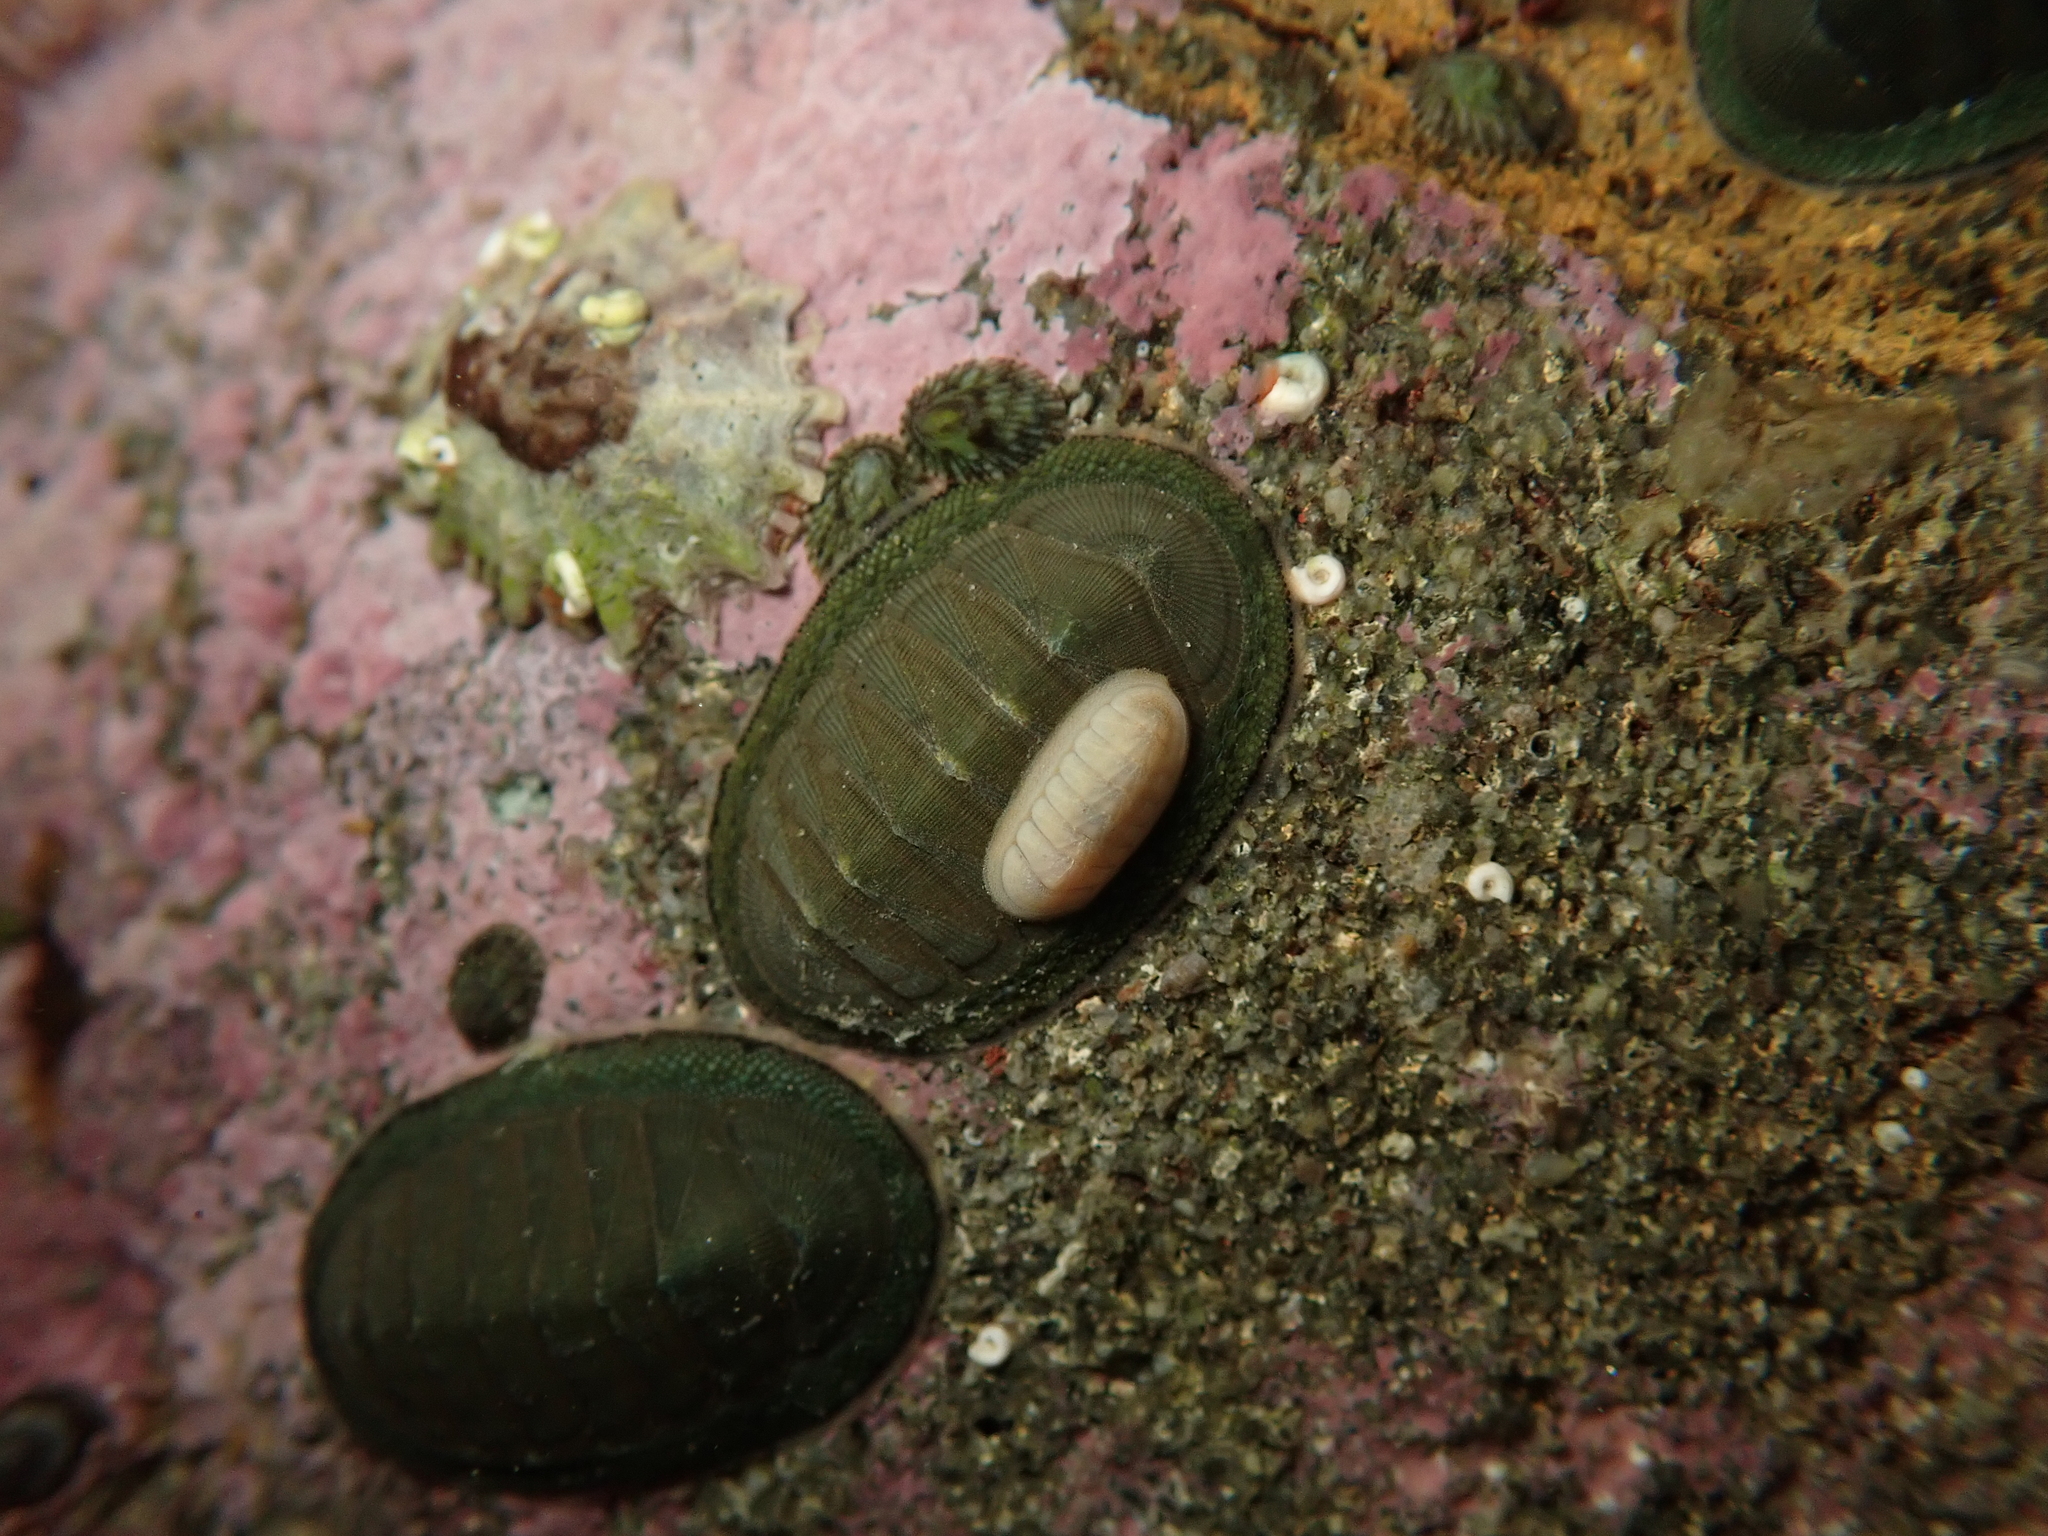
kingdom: Animalia
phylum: Mollusca
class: Polyplacophora
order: Chitonida
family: Ischnochitonidae
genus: Ischnochiton
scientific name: Ischnochiton circumvallatus
